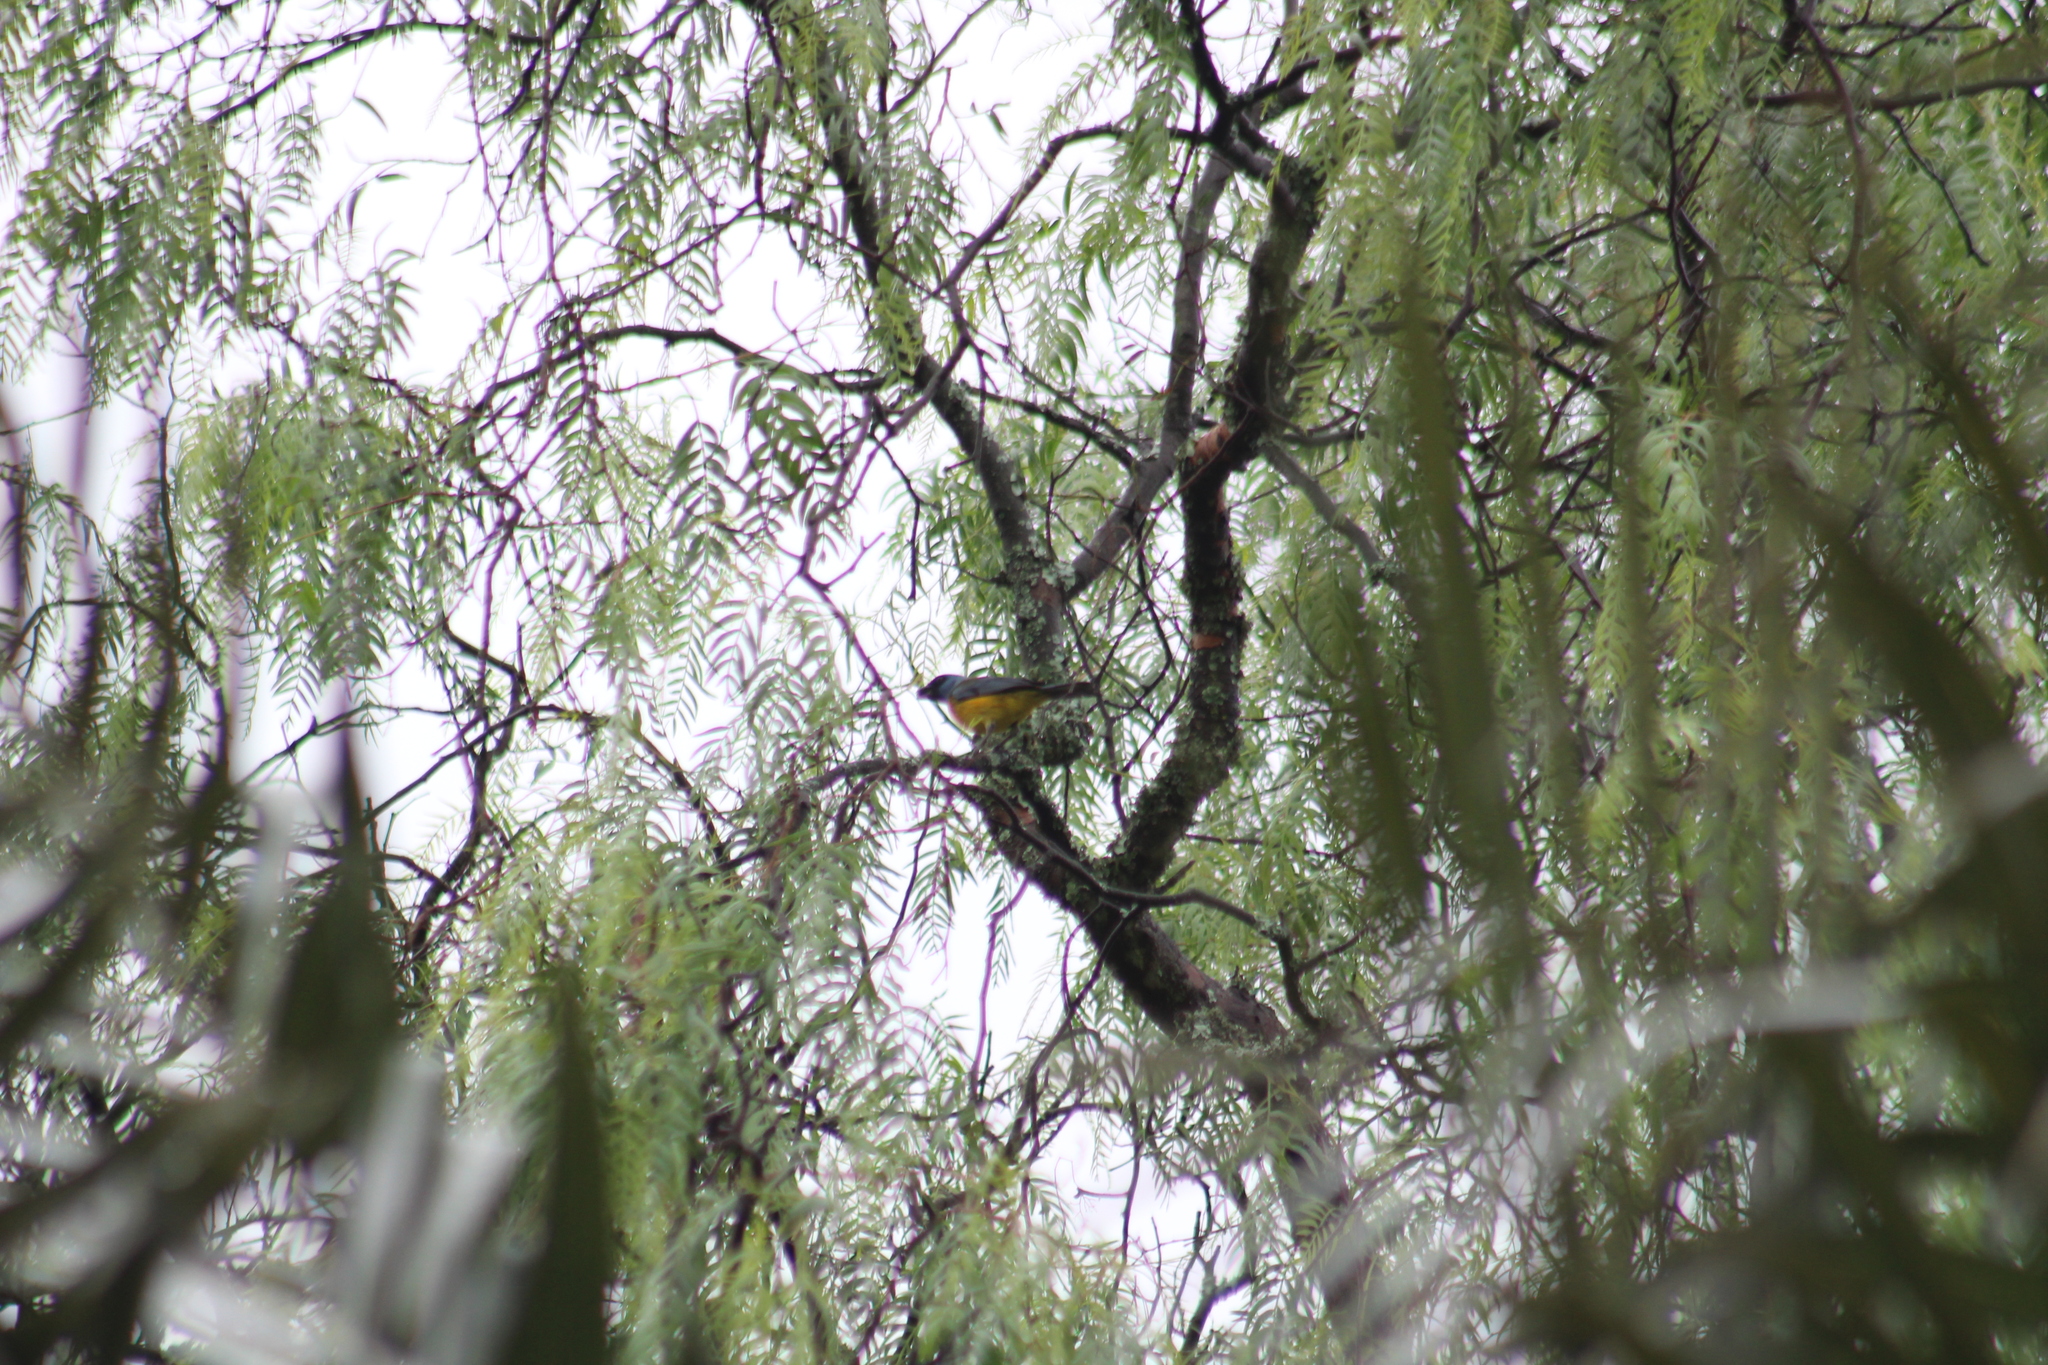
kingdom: Animalia
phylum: Chordata
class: Aves
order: Passeriformes
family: Thraupidae
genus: Rauenia
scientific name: Rauenia bonariensis
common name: Blue-and-yellow tanager
